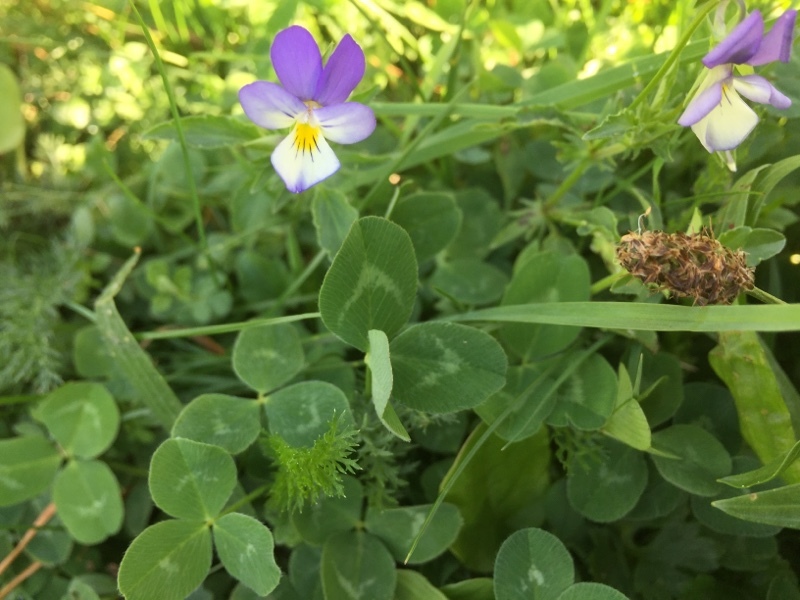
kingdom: Plantae
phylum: Tracheophyta
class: Magnoliopsida
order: Malpighiales
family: Violaceae
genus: Viola
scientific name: Viola tricolor
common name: Pansy
